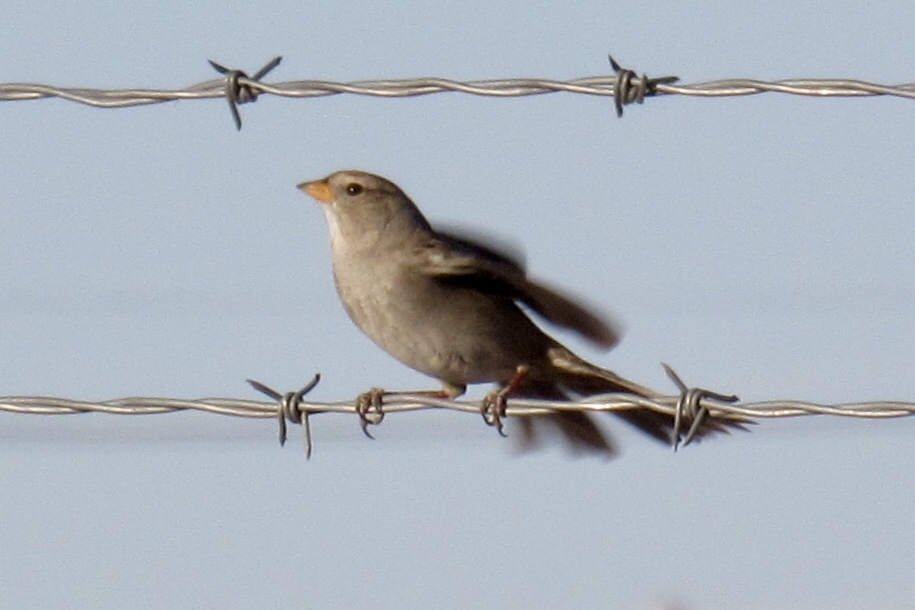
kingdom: Animalia
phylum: Chordata
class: Aves
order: Passeriformes
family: Passerellidae
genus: Zonotrichia
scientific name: Zonotrichia leucophrys
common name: White-crowned sparrow
